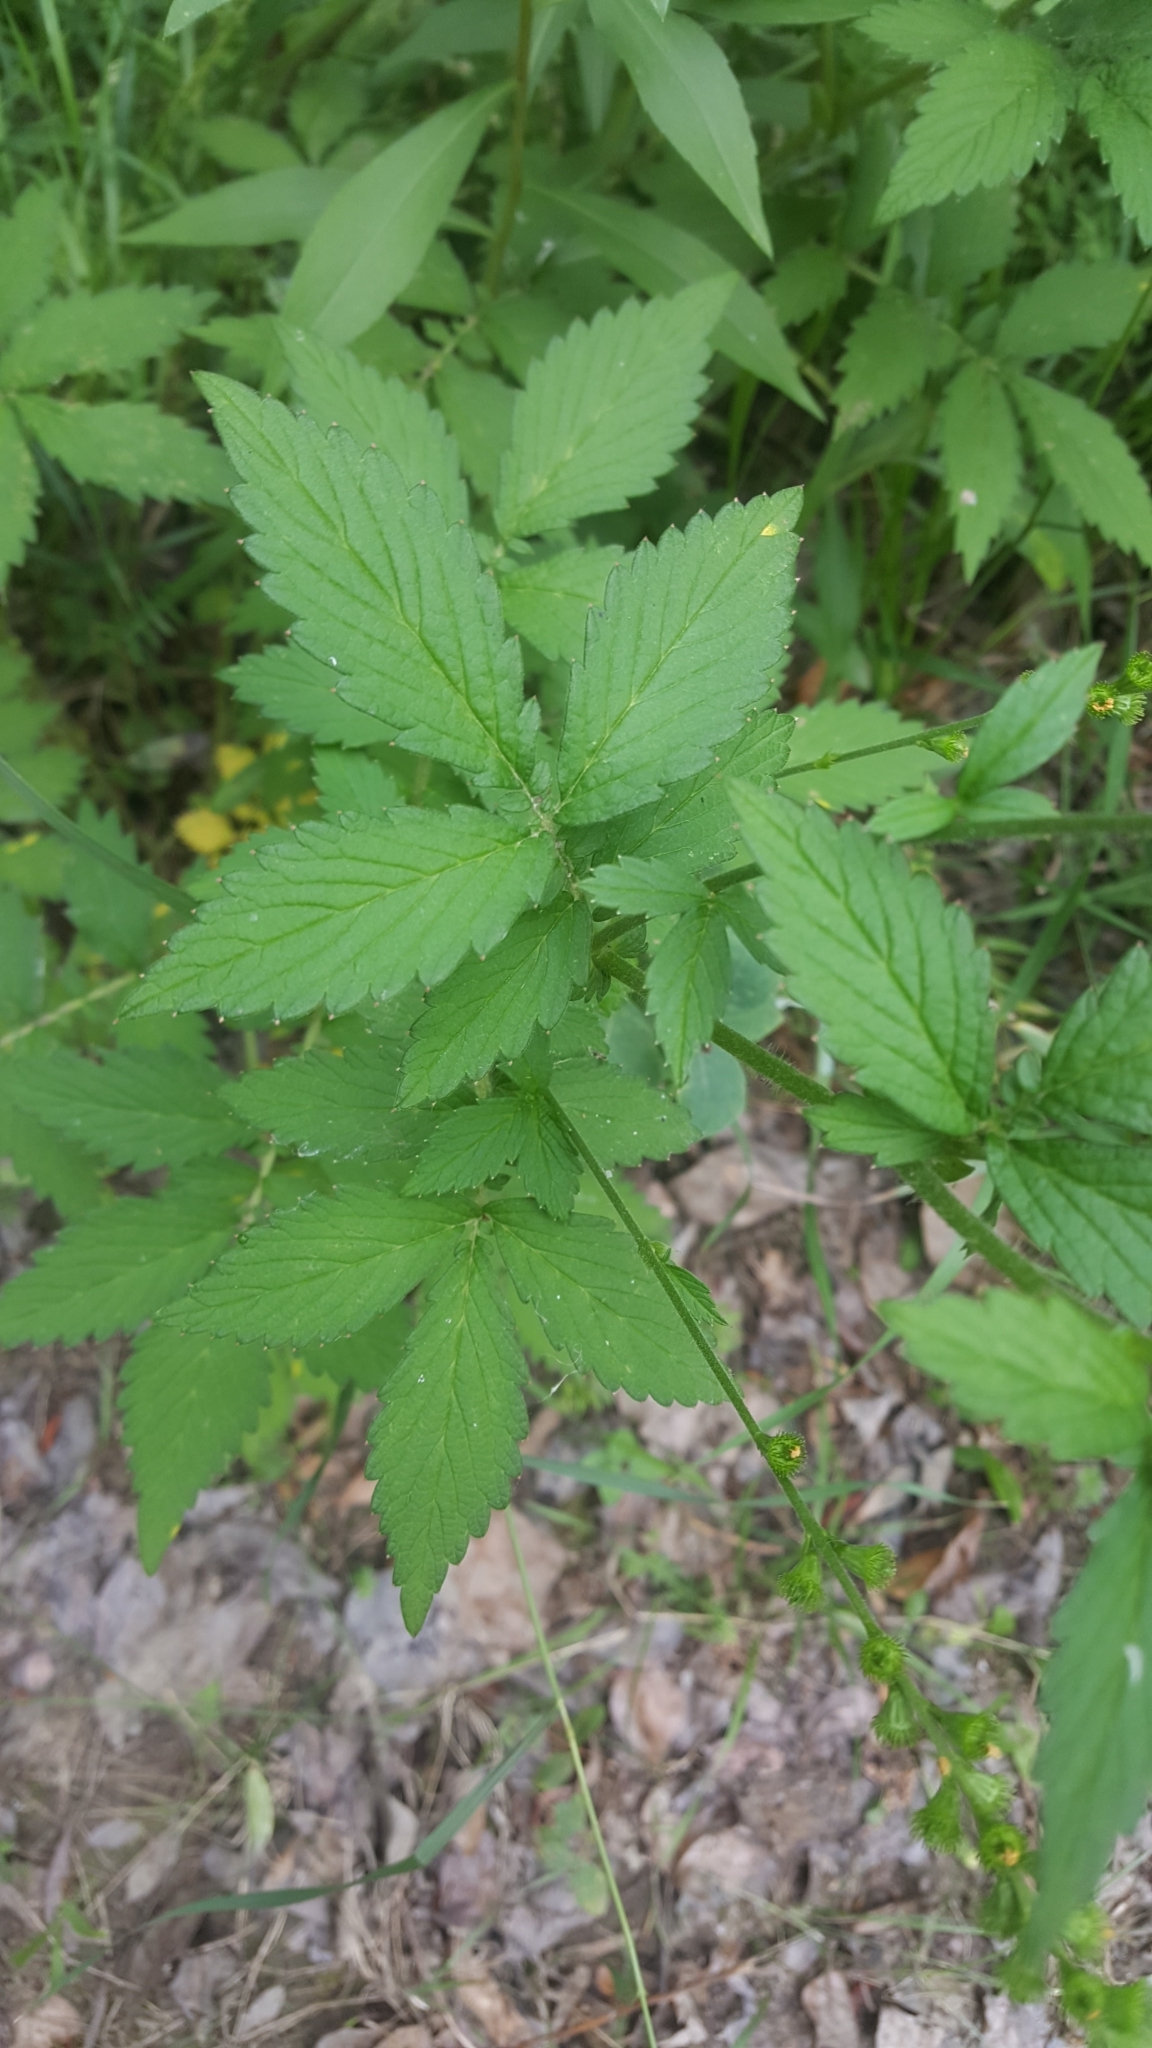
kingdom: Plantae
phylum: Tracheophyta
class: Magnoliopsida
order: Rosales
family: Rosaceae
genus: Agrimonia
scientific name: Agrimonia striata
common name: Britton's agrimony
